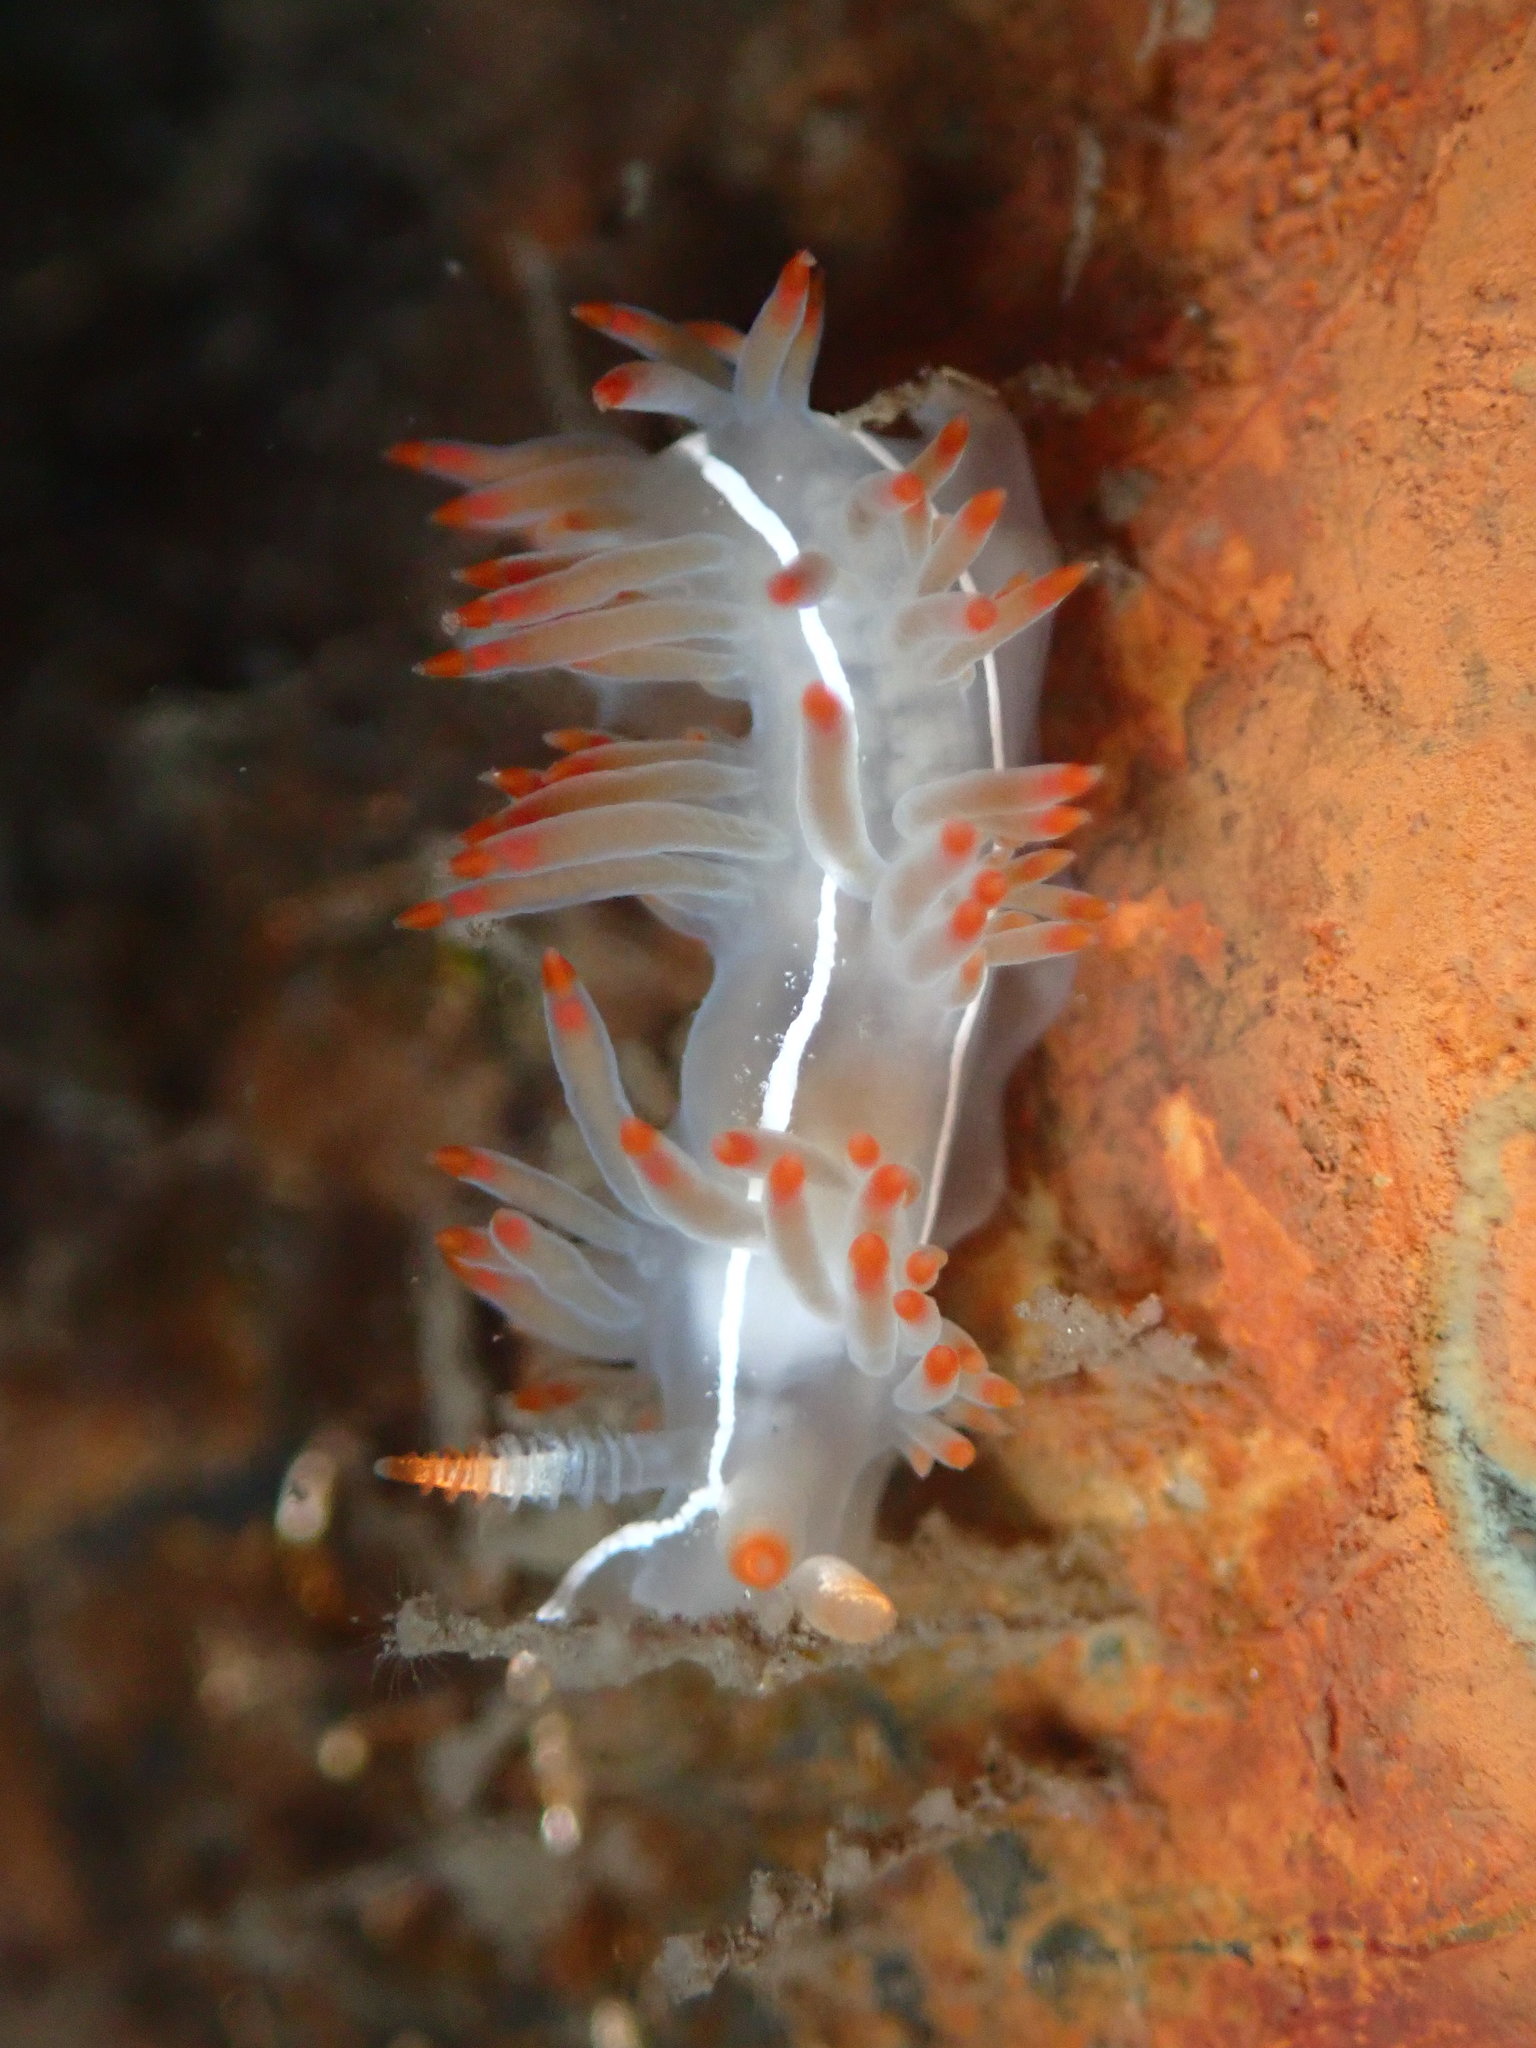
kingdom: Animalia
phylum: Mollusca
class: Gastropoda
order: Nudibranchia
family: Coryphellidae
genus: Coryphella
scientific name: Coryphella trilineata
